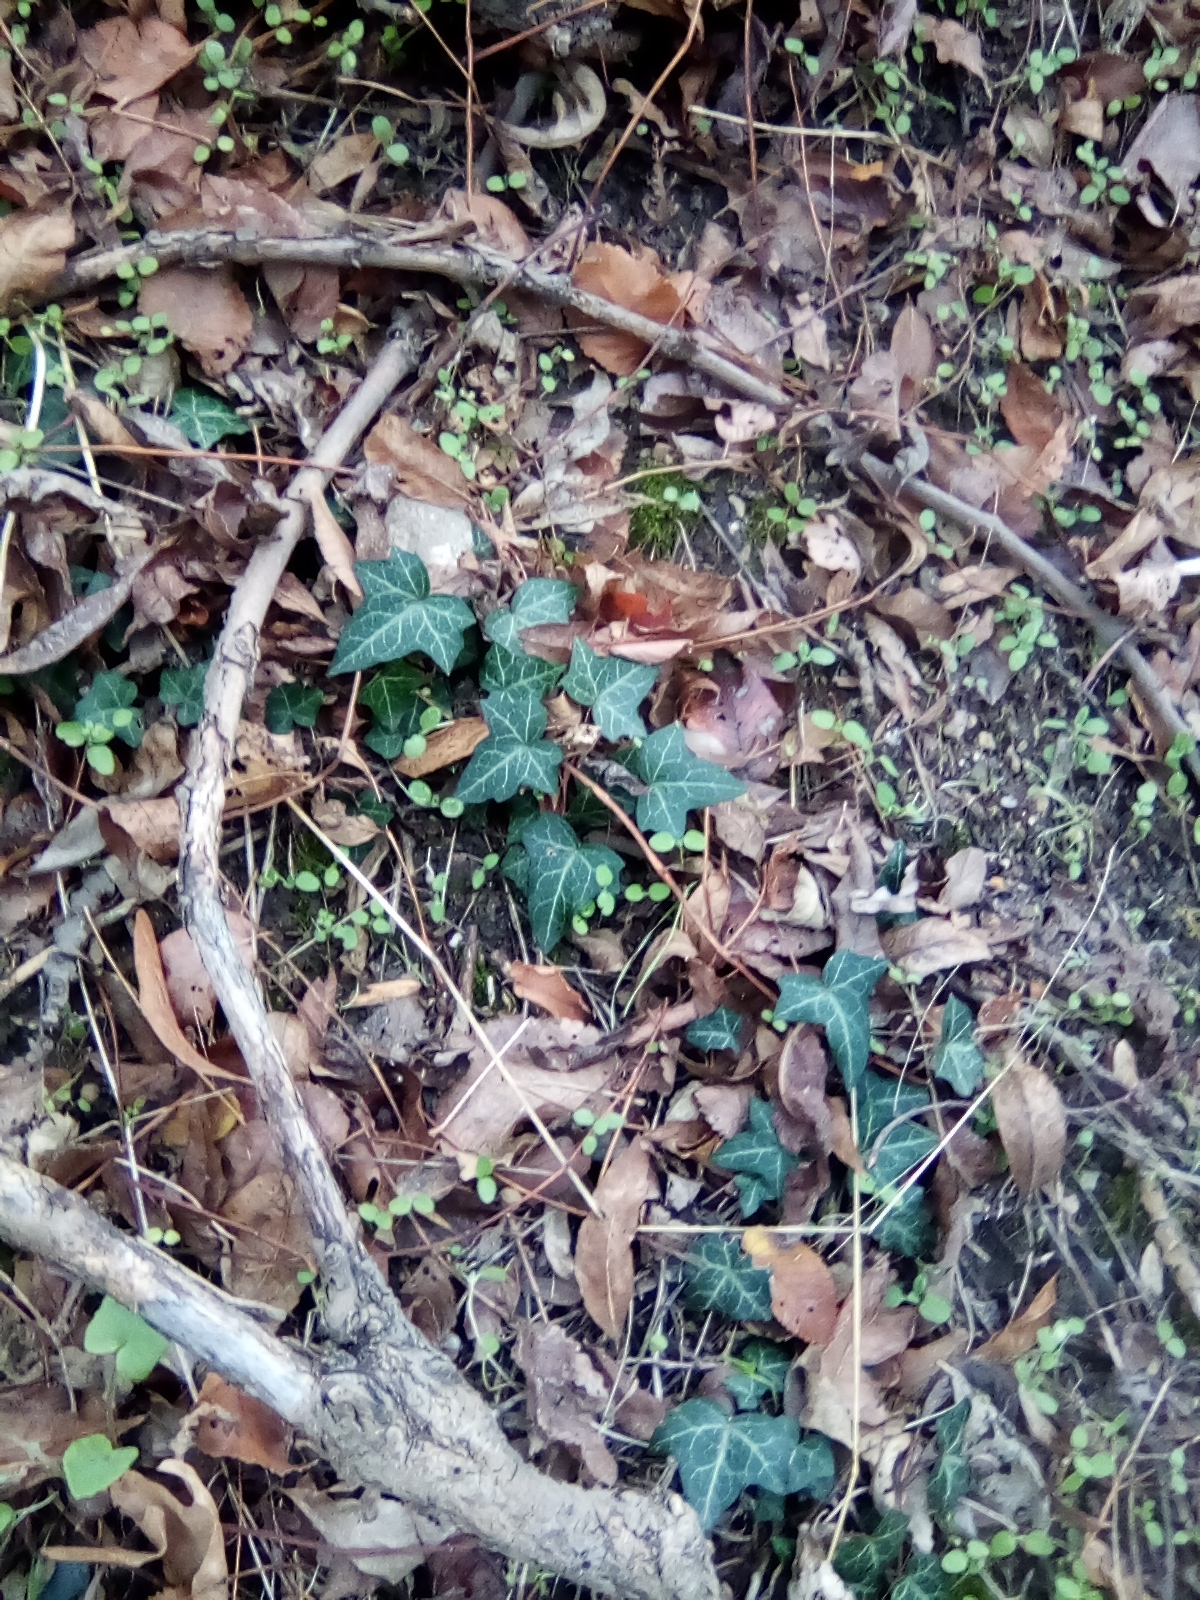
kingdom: Plantae
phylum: Tracheophyta
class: Magnoliopsida
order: Apiales
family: Araliaceae
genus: Hedera
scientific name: Hedera helix
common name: Ivy
